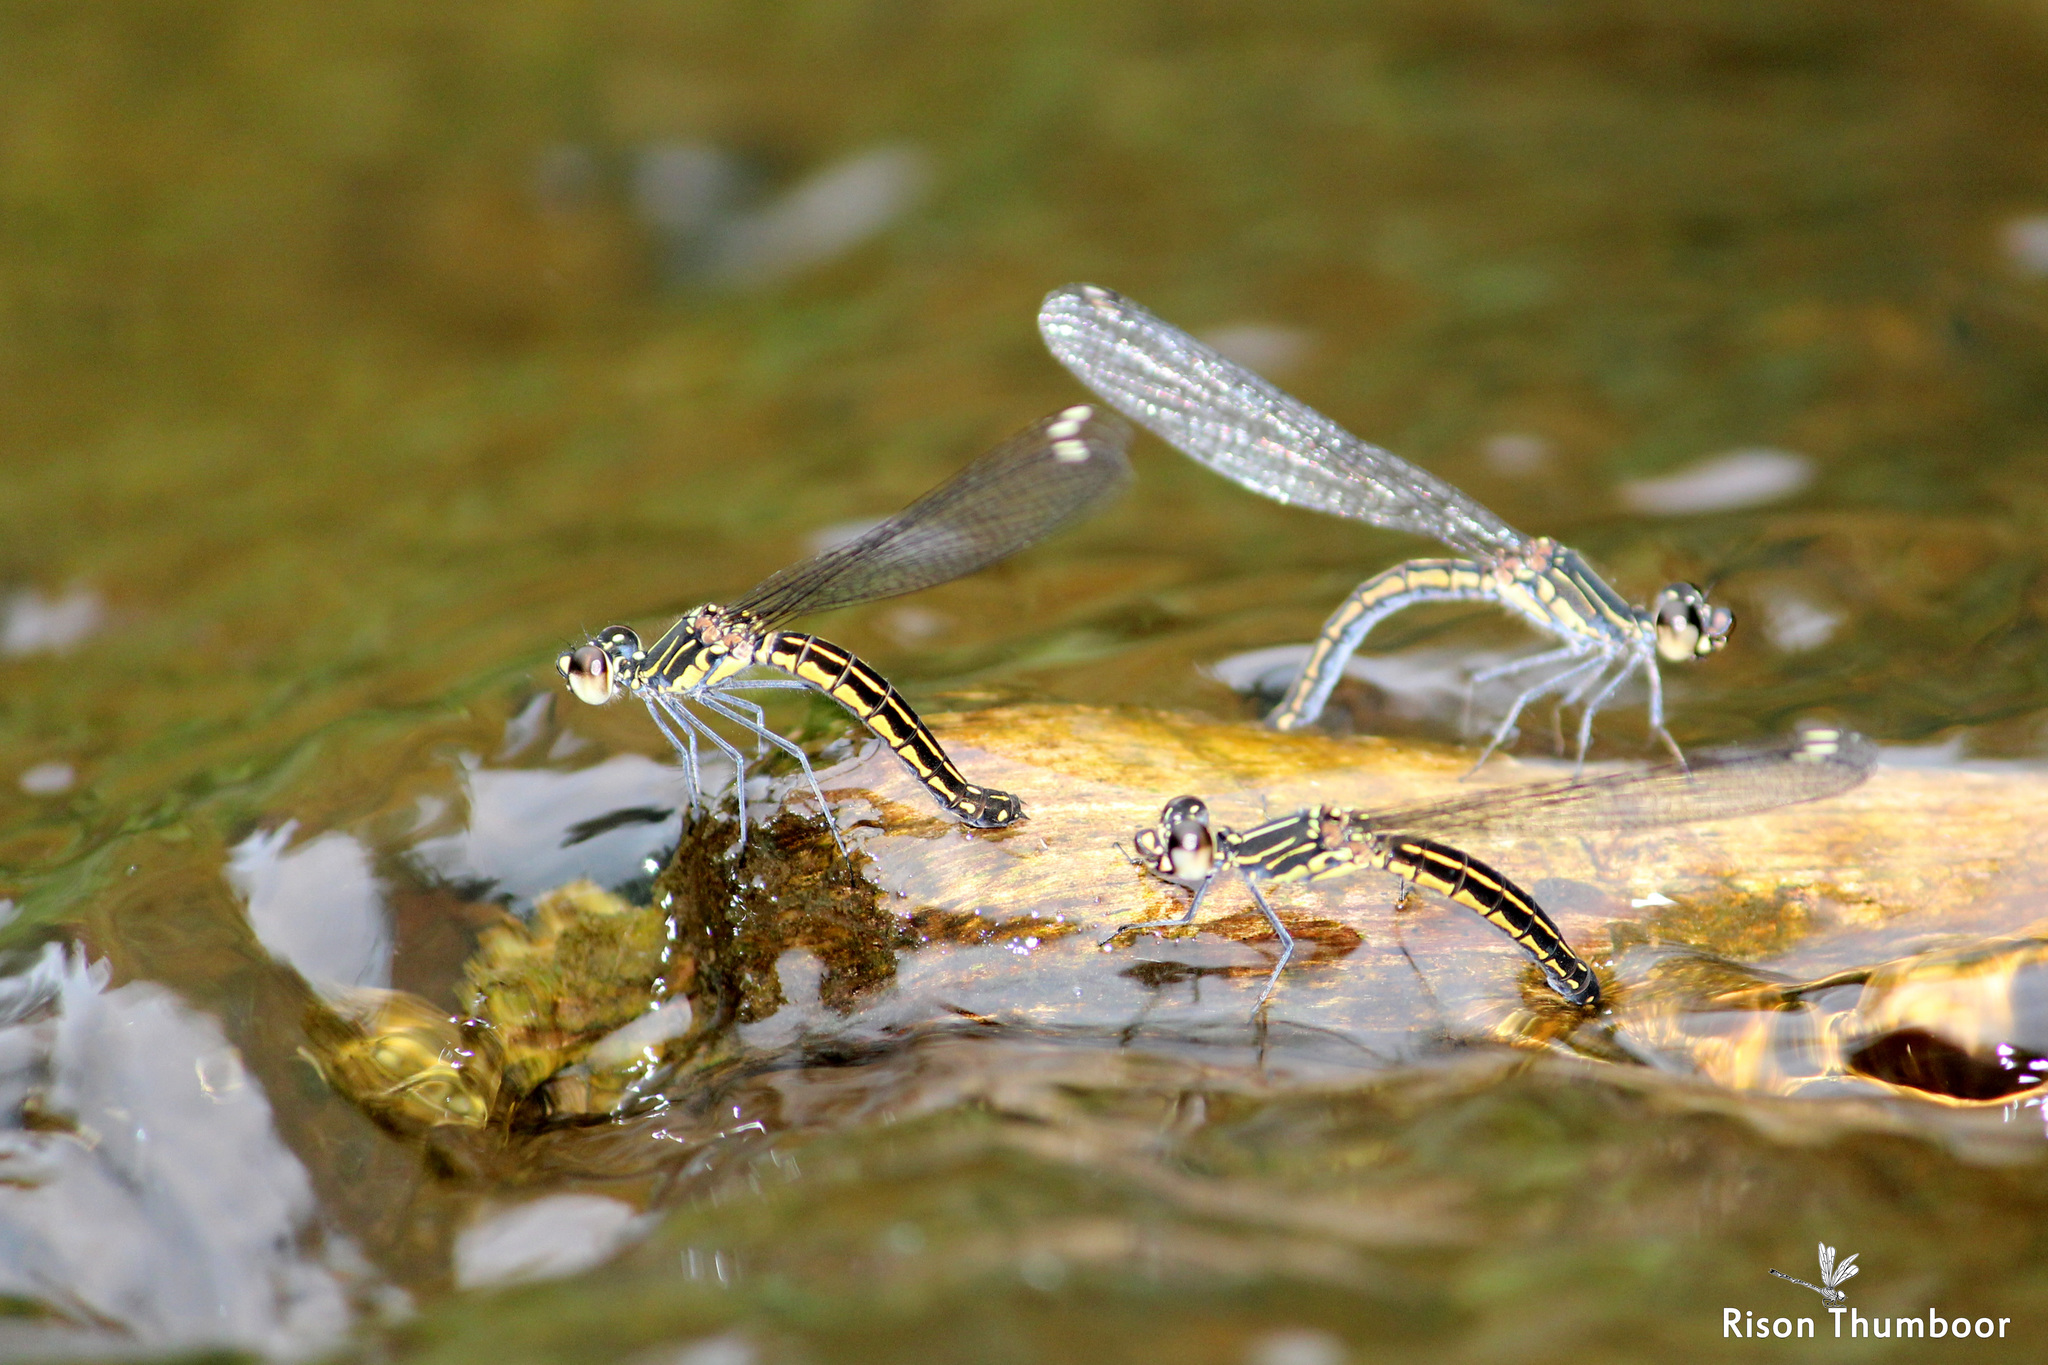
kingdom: Animalia
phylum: Arthropoda
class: Insecta
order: Odonata
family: Chlorocyphidae
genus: Libellago
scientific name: Libellago indica
